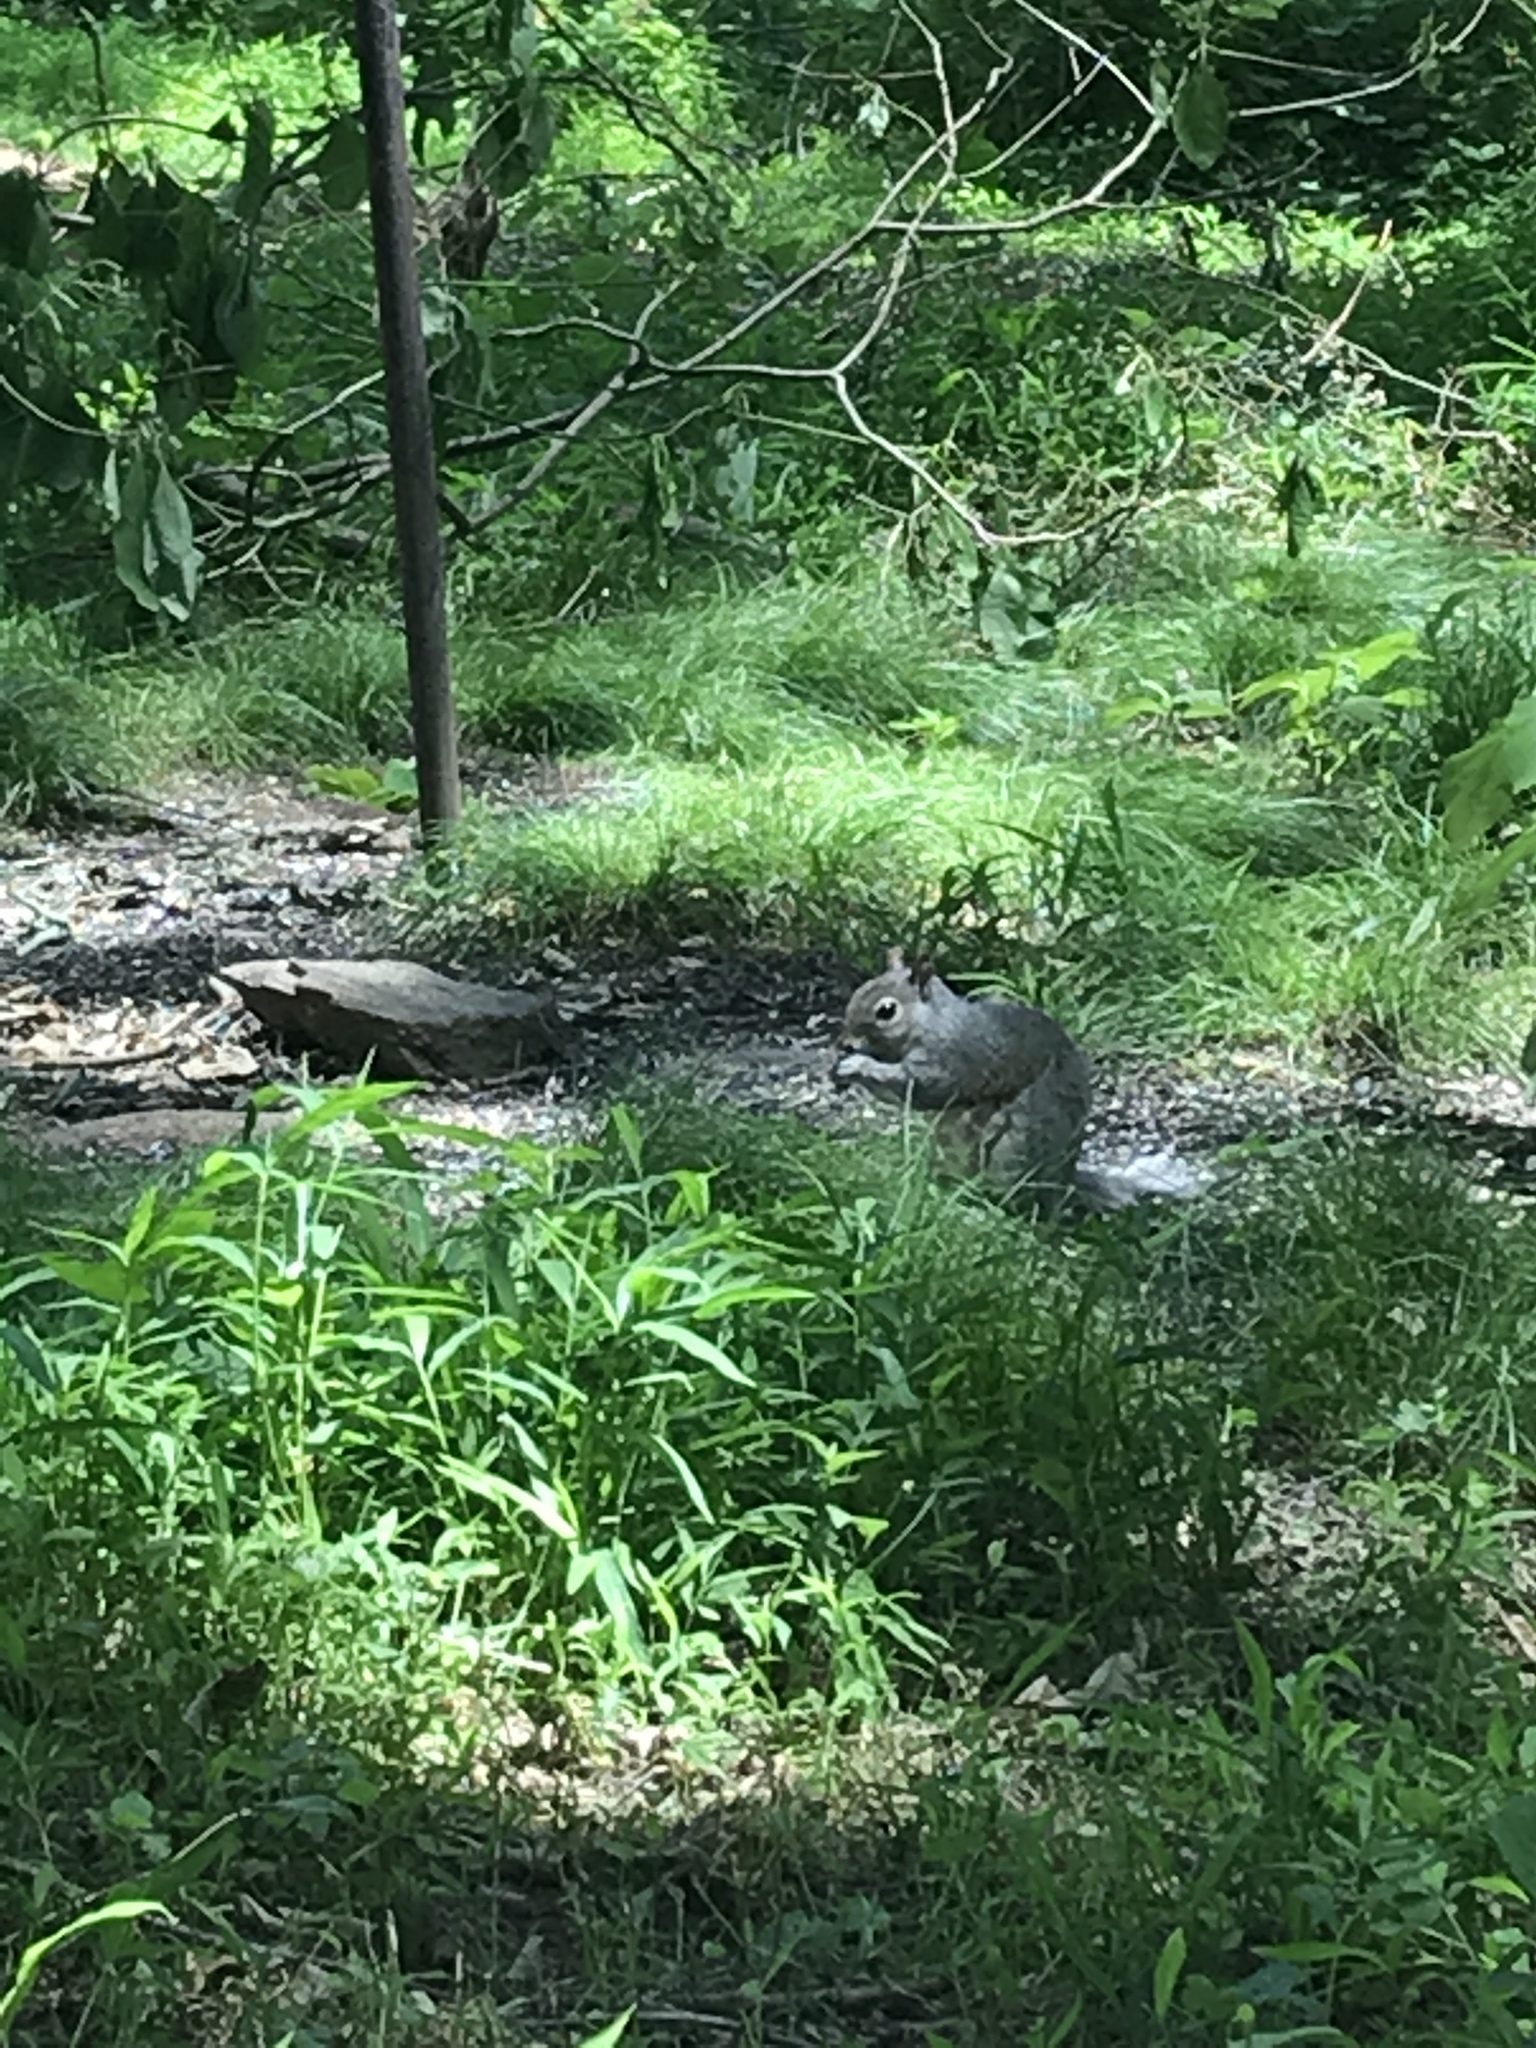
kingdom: Animalia
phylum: Chordata
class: Mammalia
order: Rodentia
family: Sciuridae
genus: Sciurus
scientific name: Sciurus carolinensis
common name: Eastern gray squirrel
